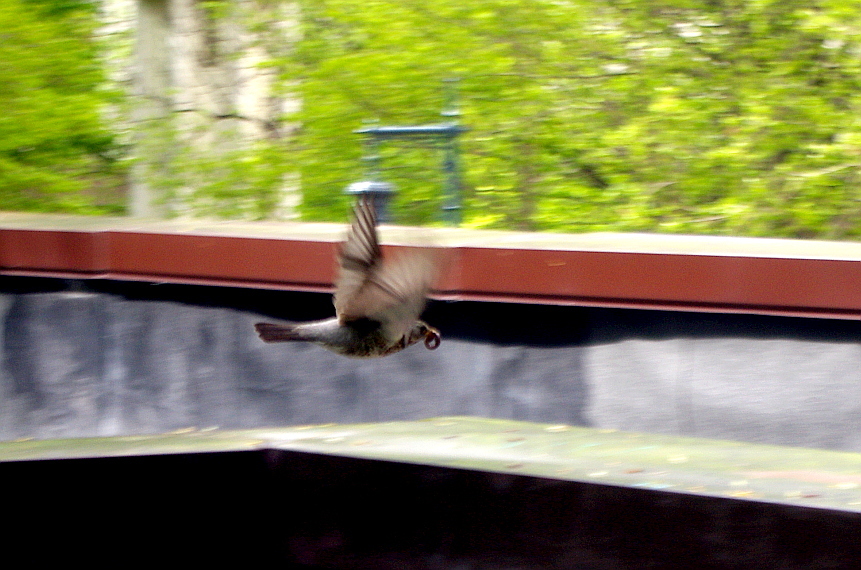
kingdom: Animalia
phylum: Chordata
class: Aves
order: Passeriformes
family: Turdidae
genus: Turdus
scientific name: Turdus pilaris
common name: Fieldfare
